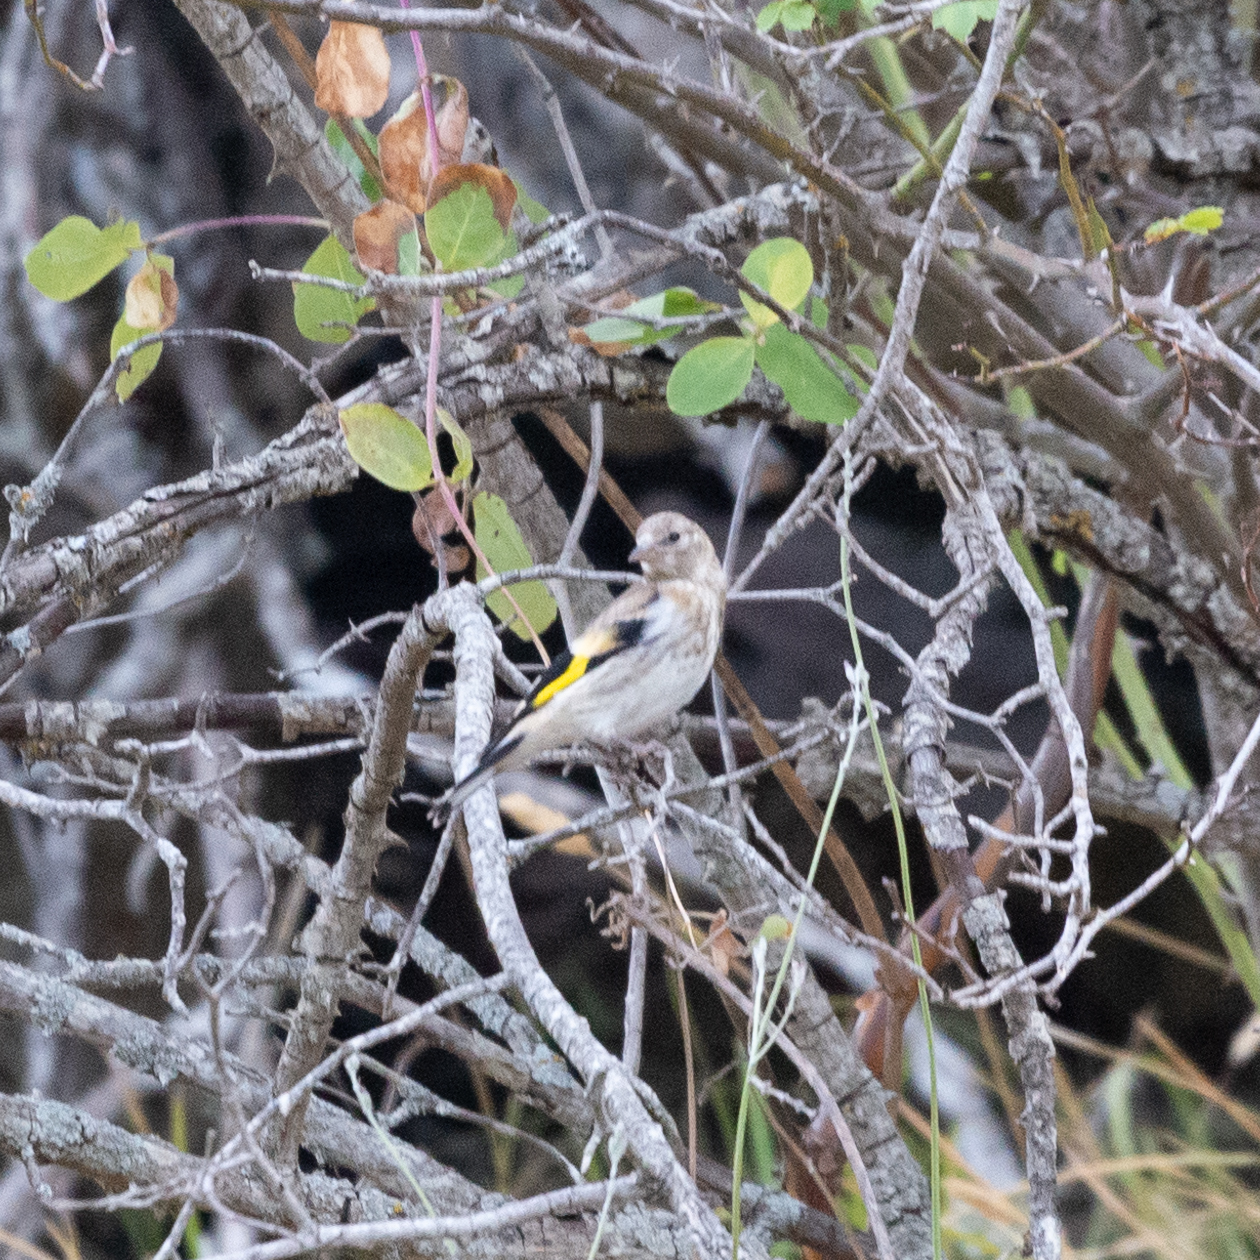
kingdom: Animalia
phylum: Chordata
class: Aves
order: Passeriformes
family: Fringillidae
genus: Carduelis
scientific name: Carduelis carduelis
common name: European goldfinch
